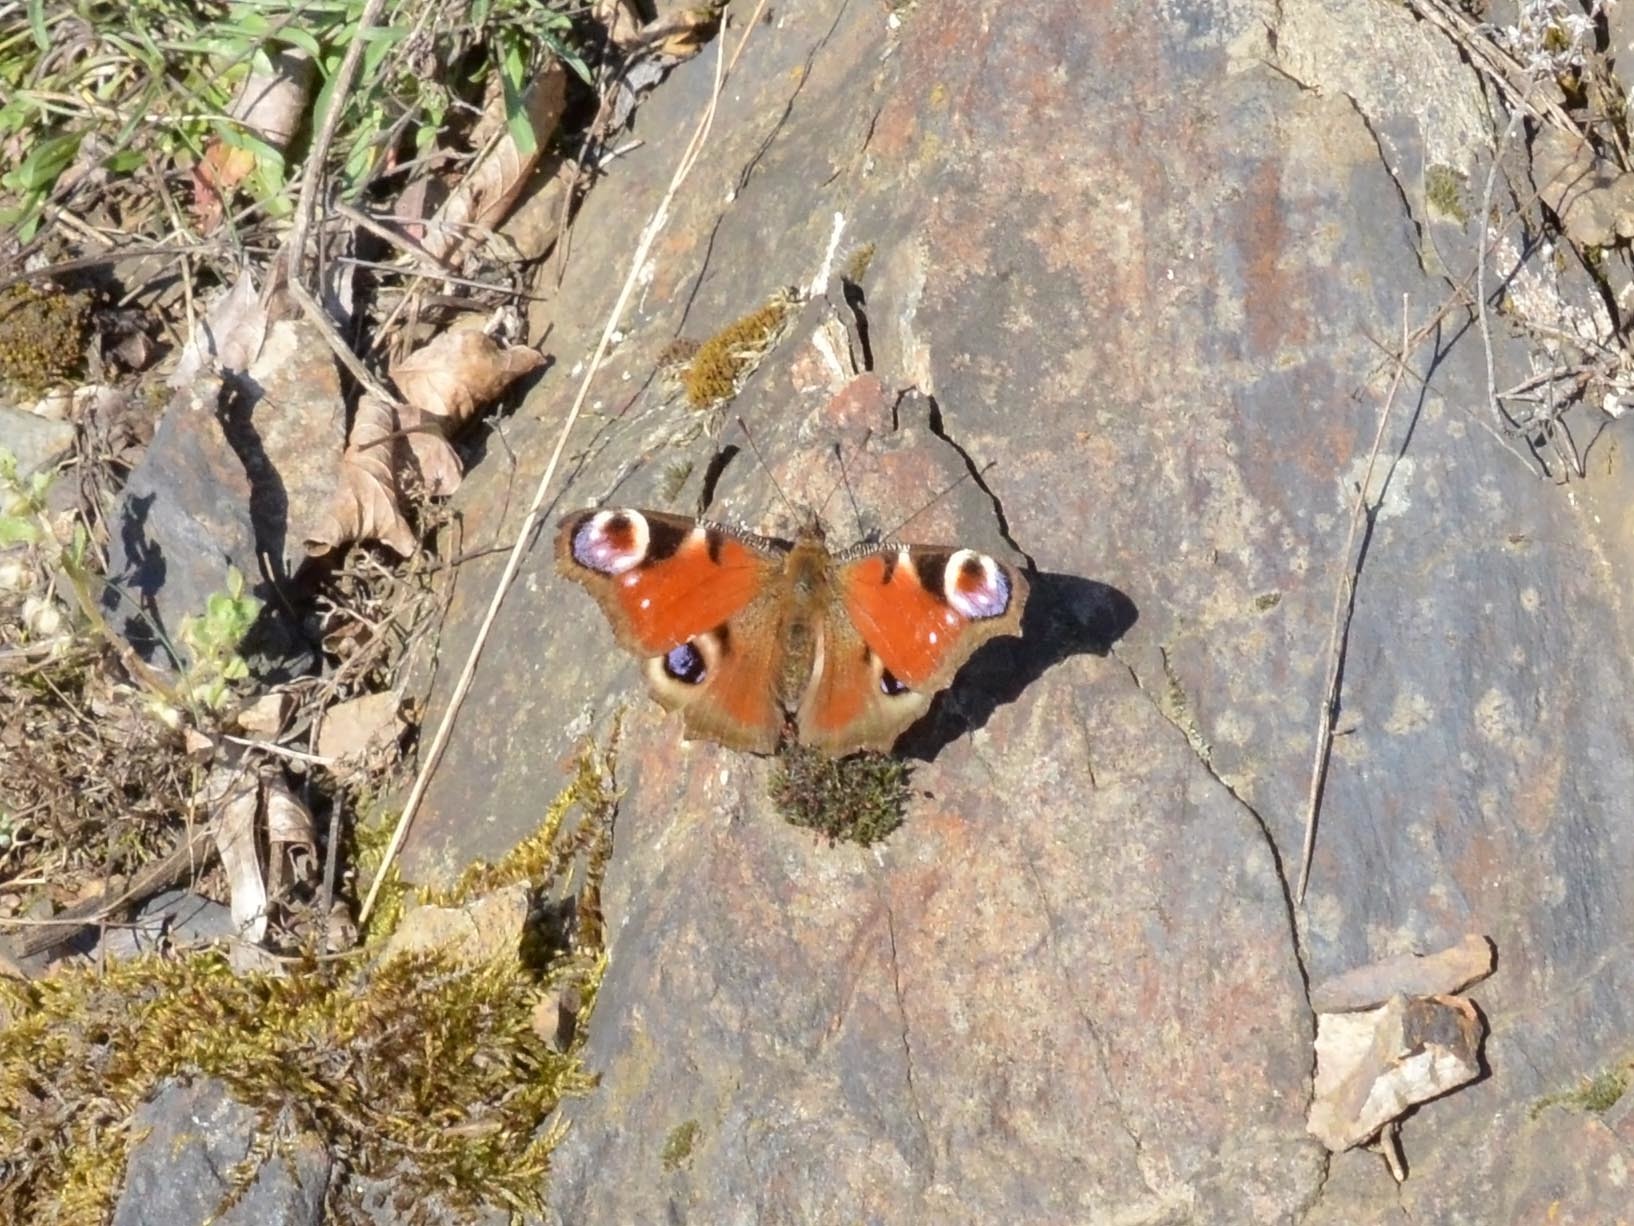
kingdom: Animalia
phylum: Arthropoda
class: Insecta
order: Lepidoptera
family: Nymphalidae
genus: Aglais
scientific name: Aglais io
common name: Peacock
